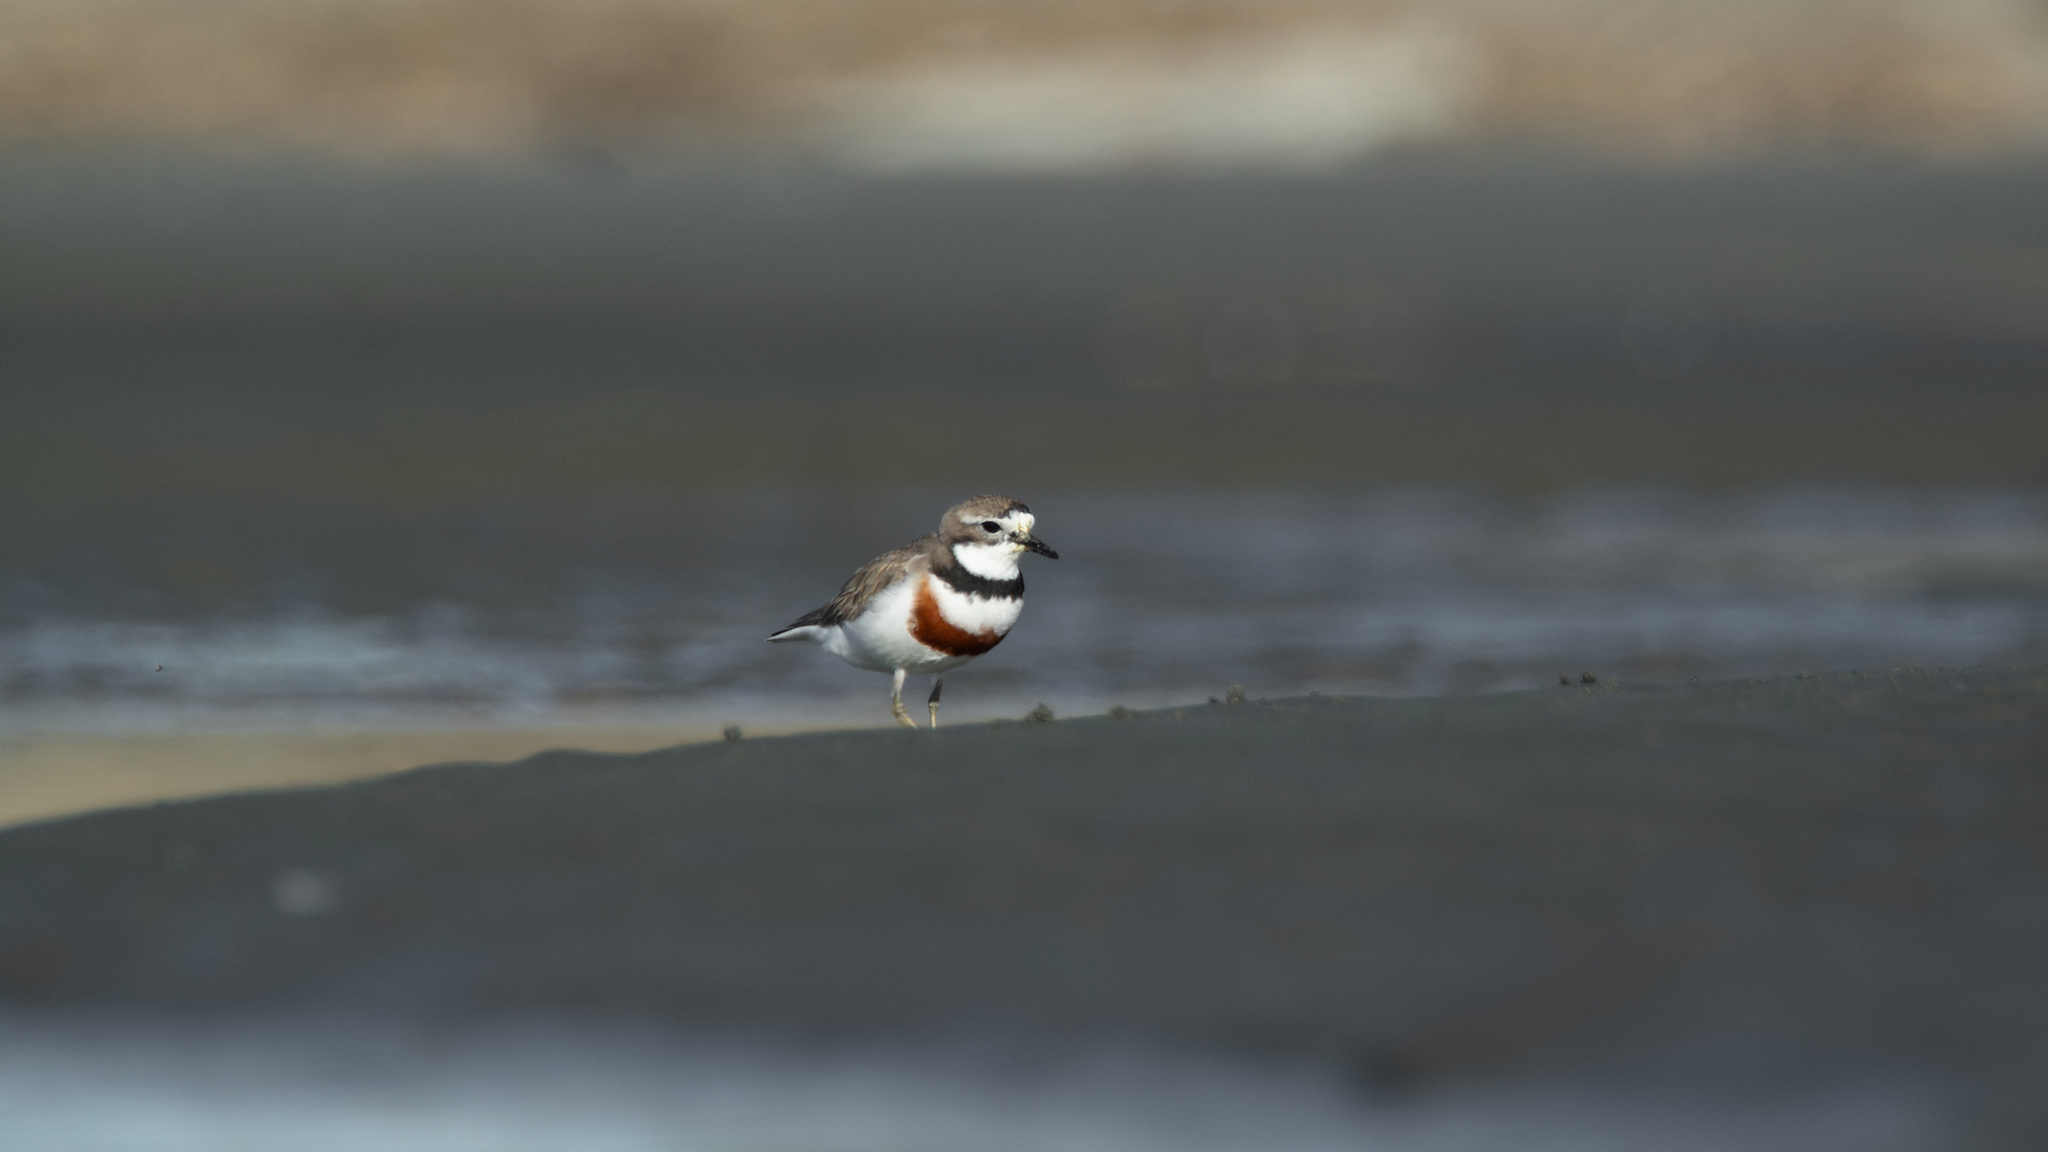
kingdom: Animalia
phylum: Chordata
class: Aves
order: Charadriiformes
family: Charadriidae
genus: Anarhynchus
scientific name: Anarhynchus
